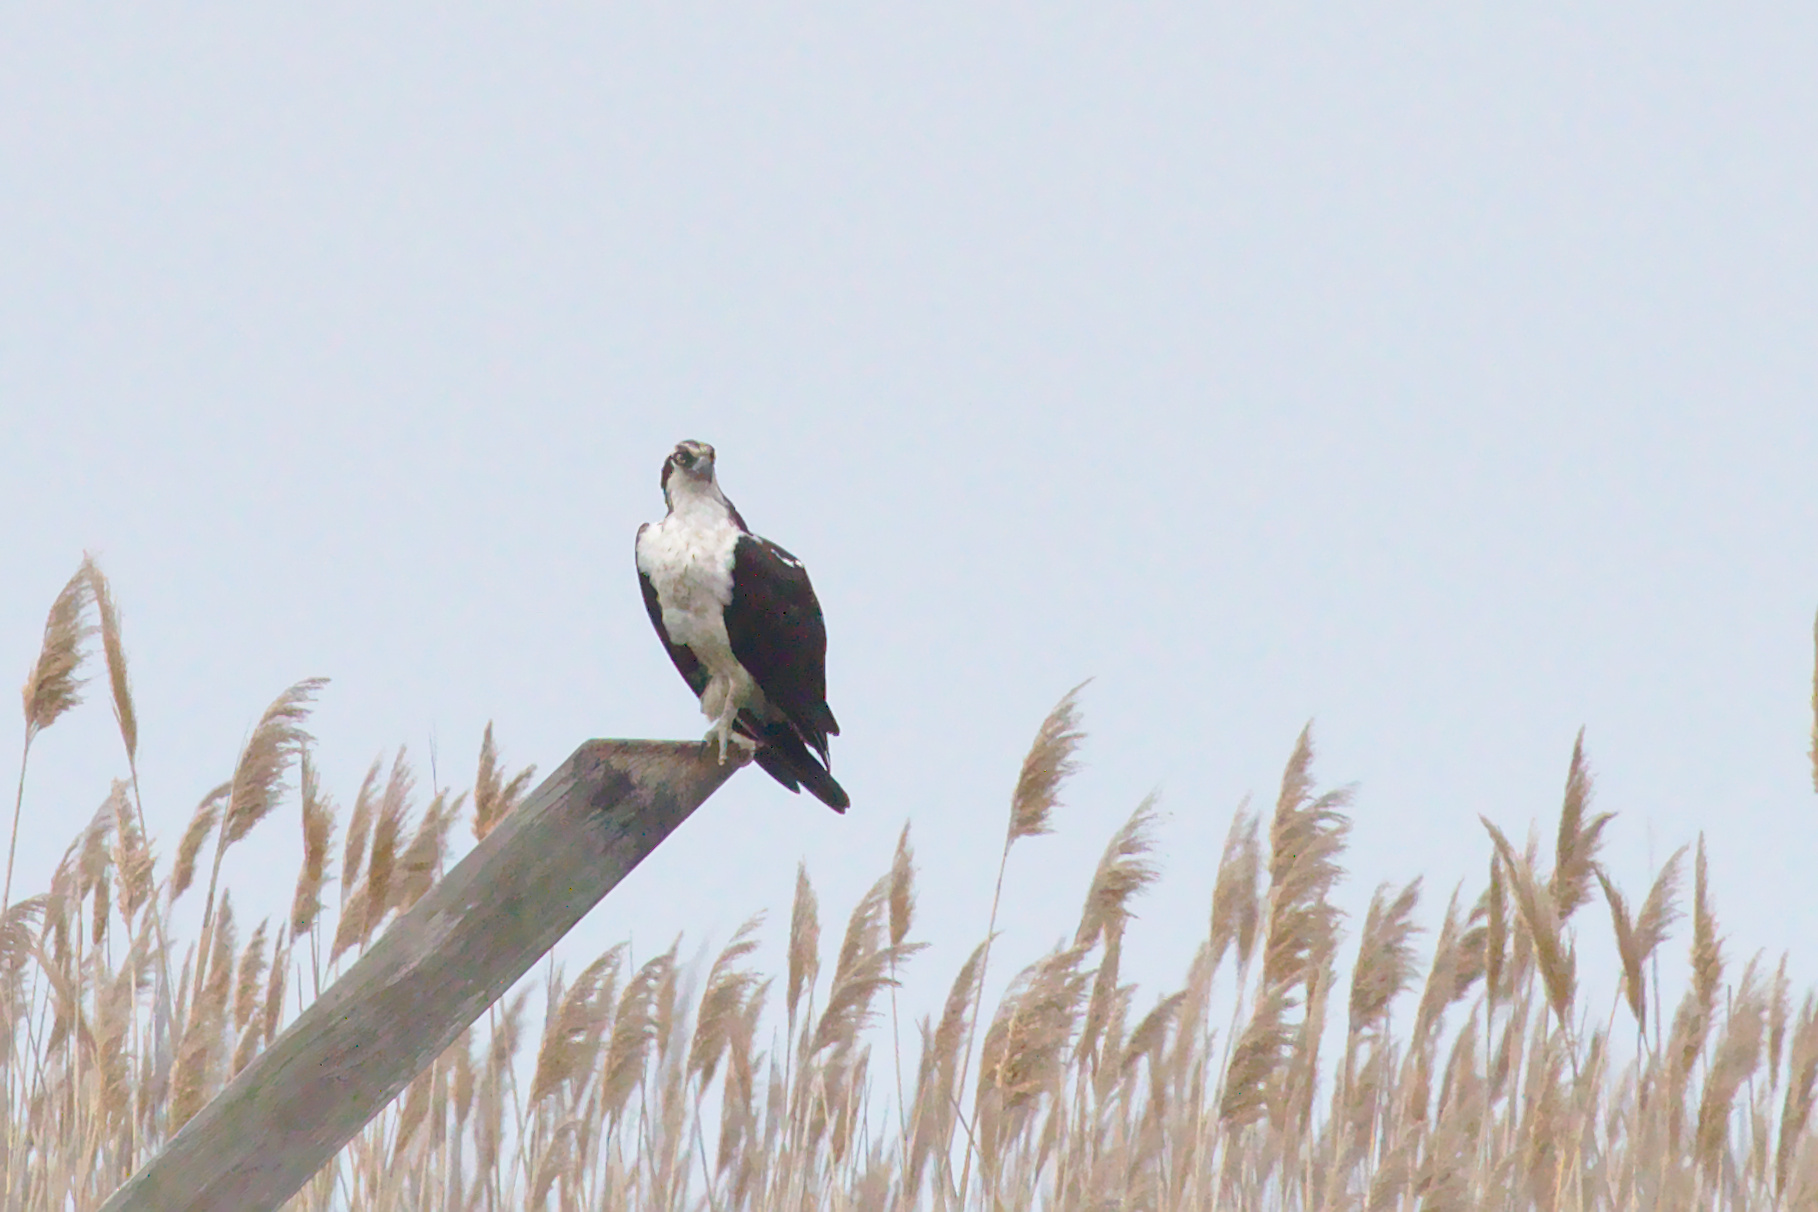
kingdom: Animalia
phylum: Chordata
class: Aves
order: Accipitriformes
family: Pandionidae
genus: Pandion
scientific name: Pandion haliaetus
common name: Osprey
